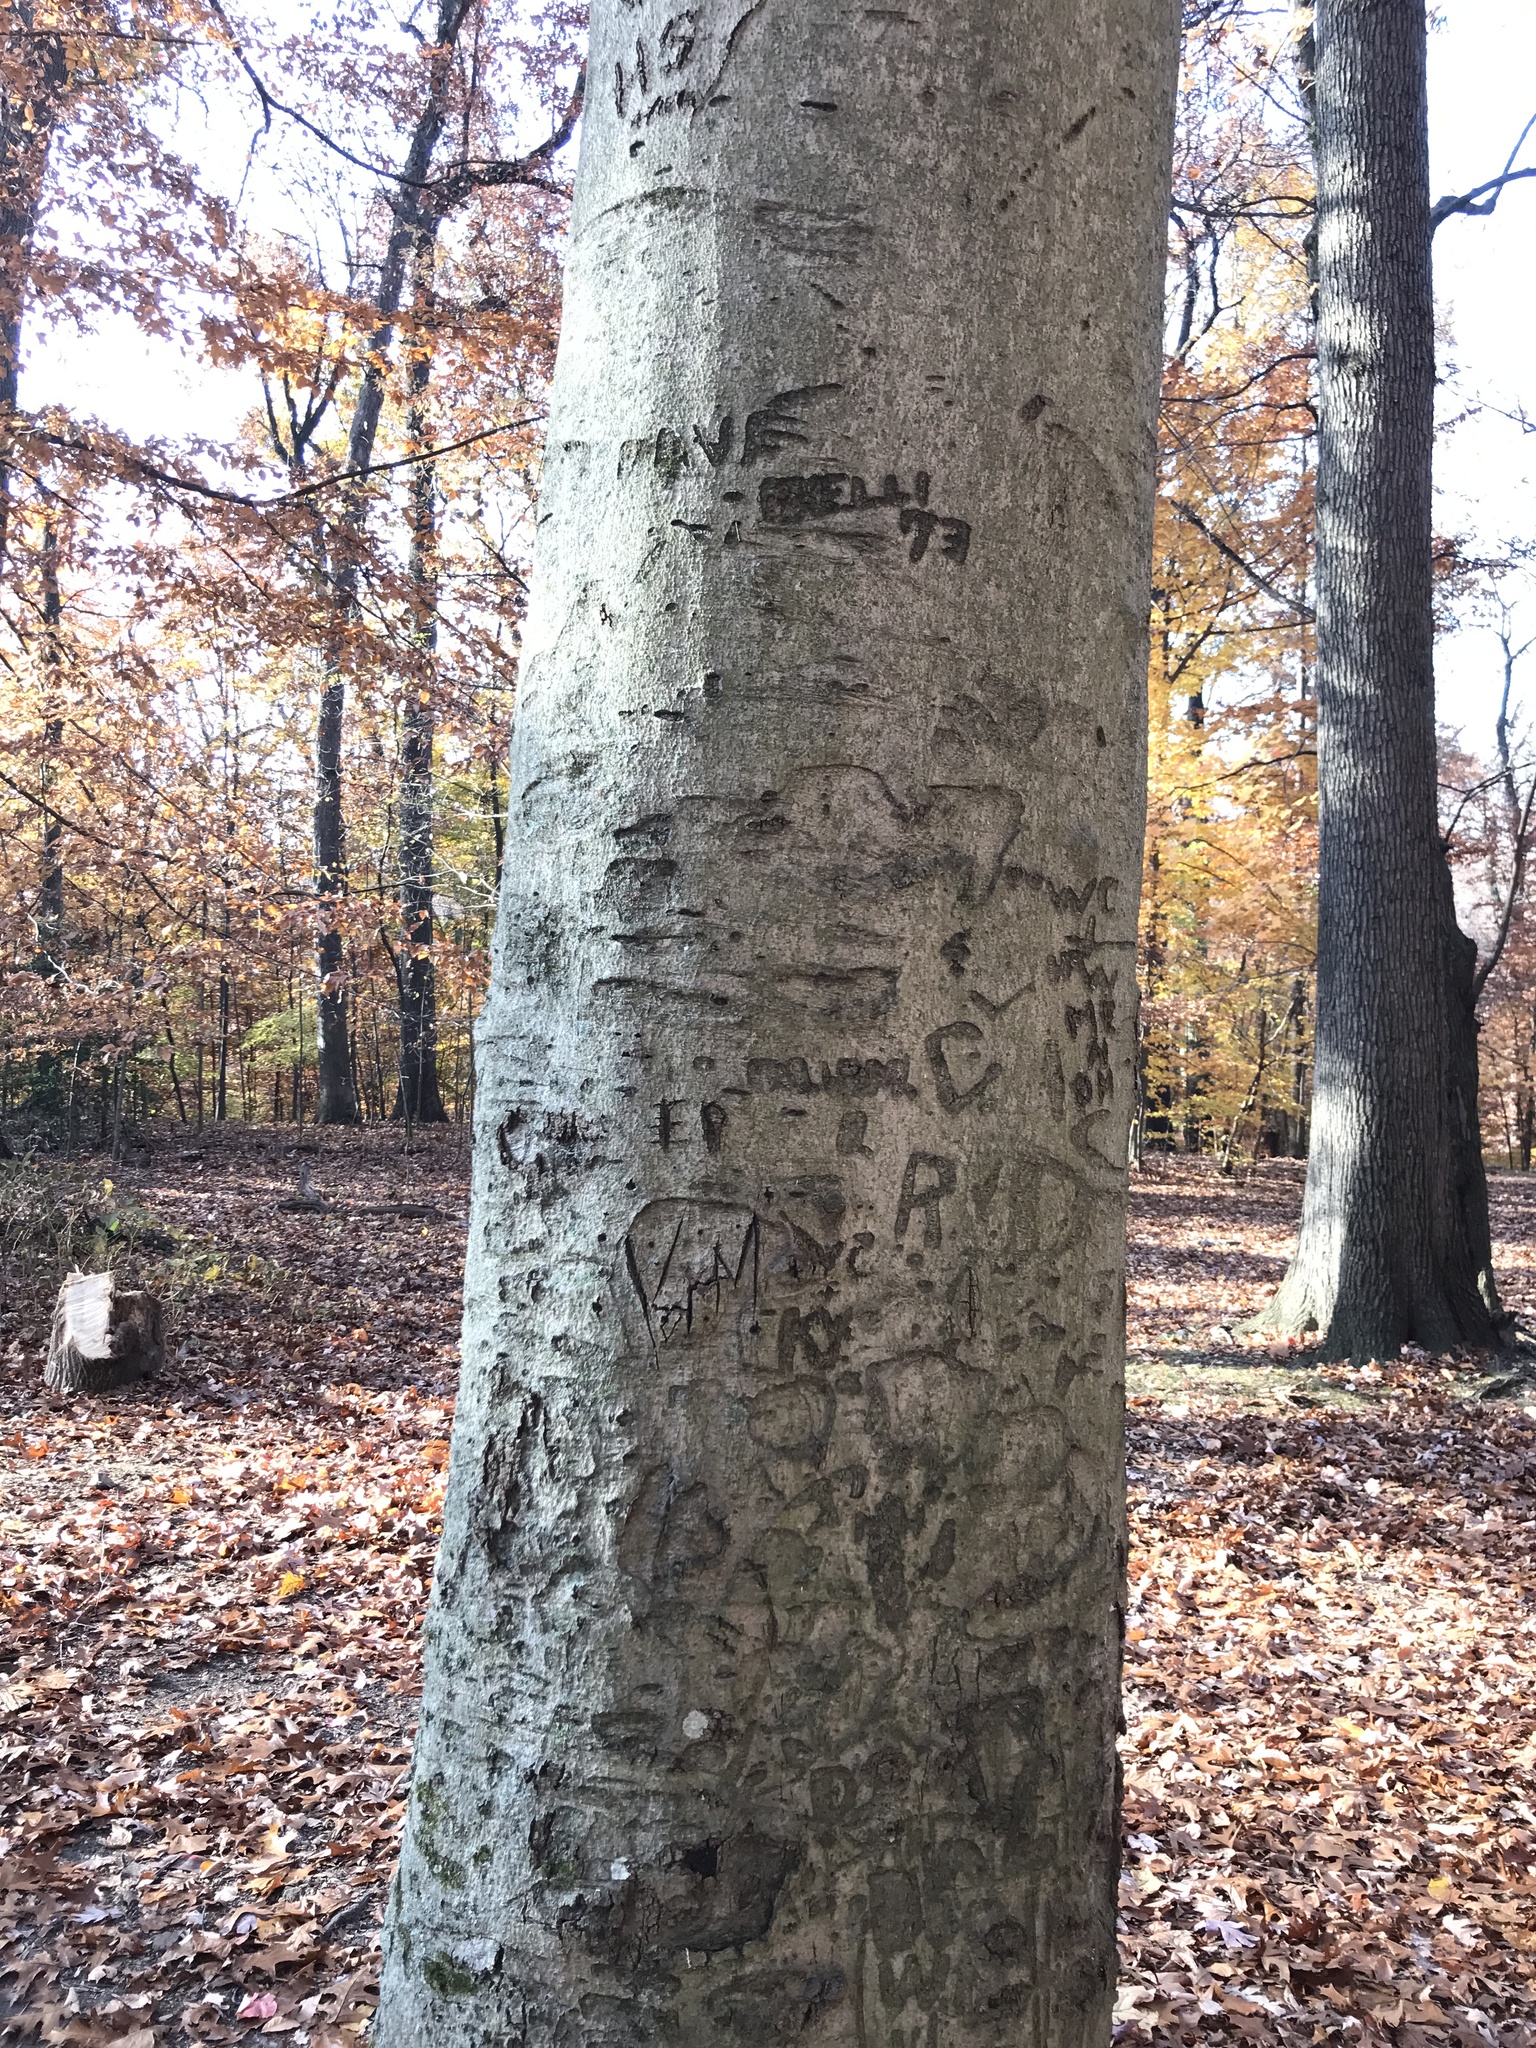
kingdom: Plantae
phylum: Tracheophyta
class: Magnoliopsida
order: Fagales
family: Fagaceae
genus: Fagus
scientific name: Fagus grandifolia
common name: American beech
